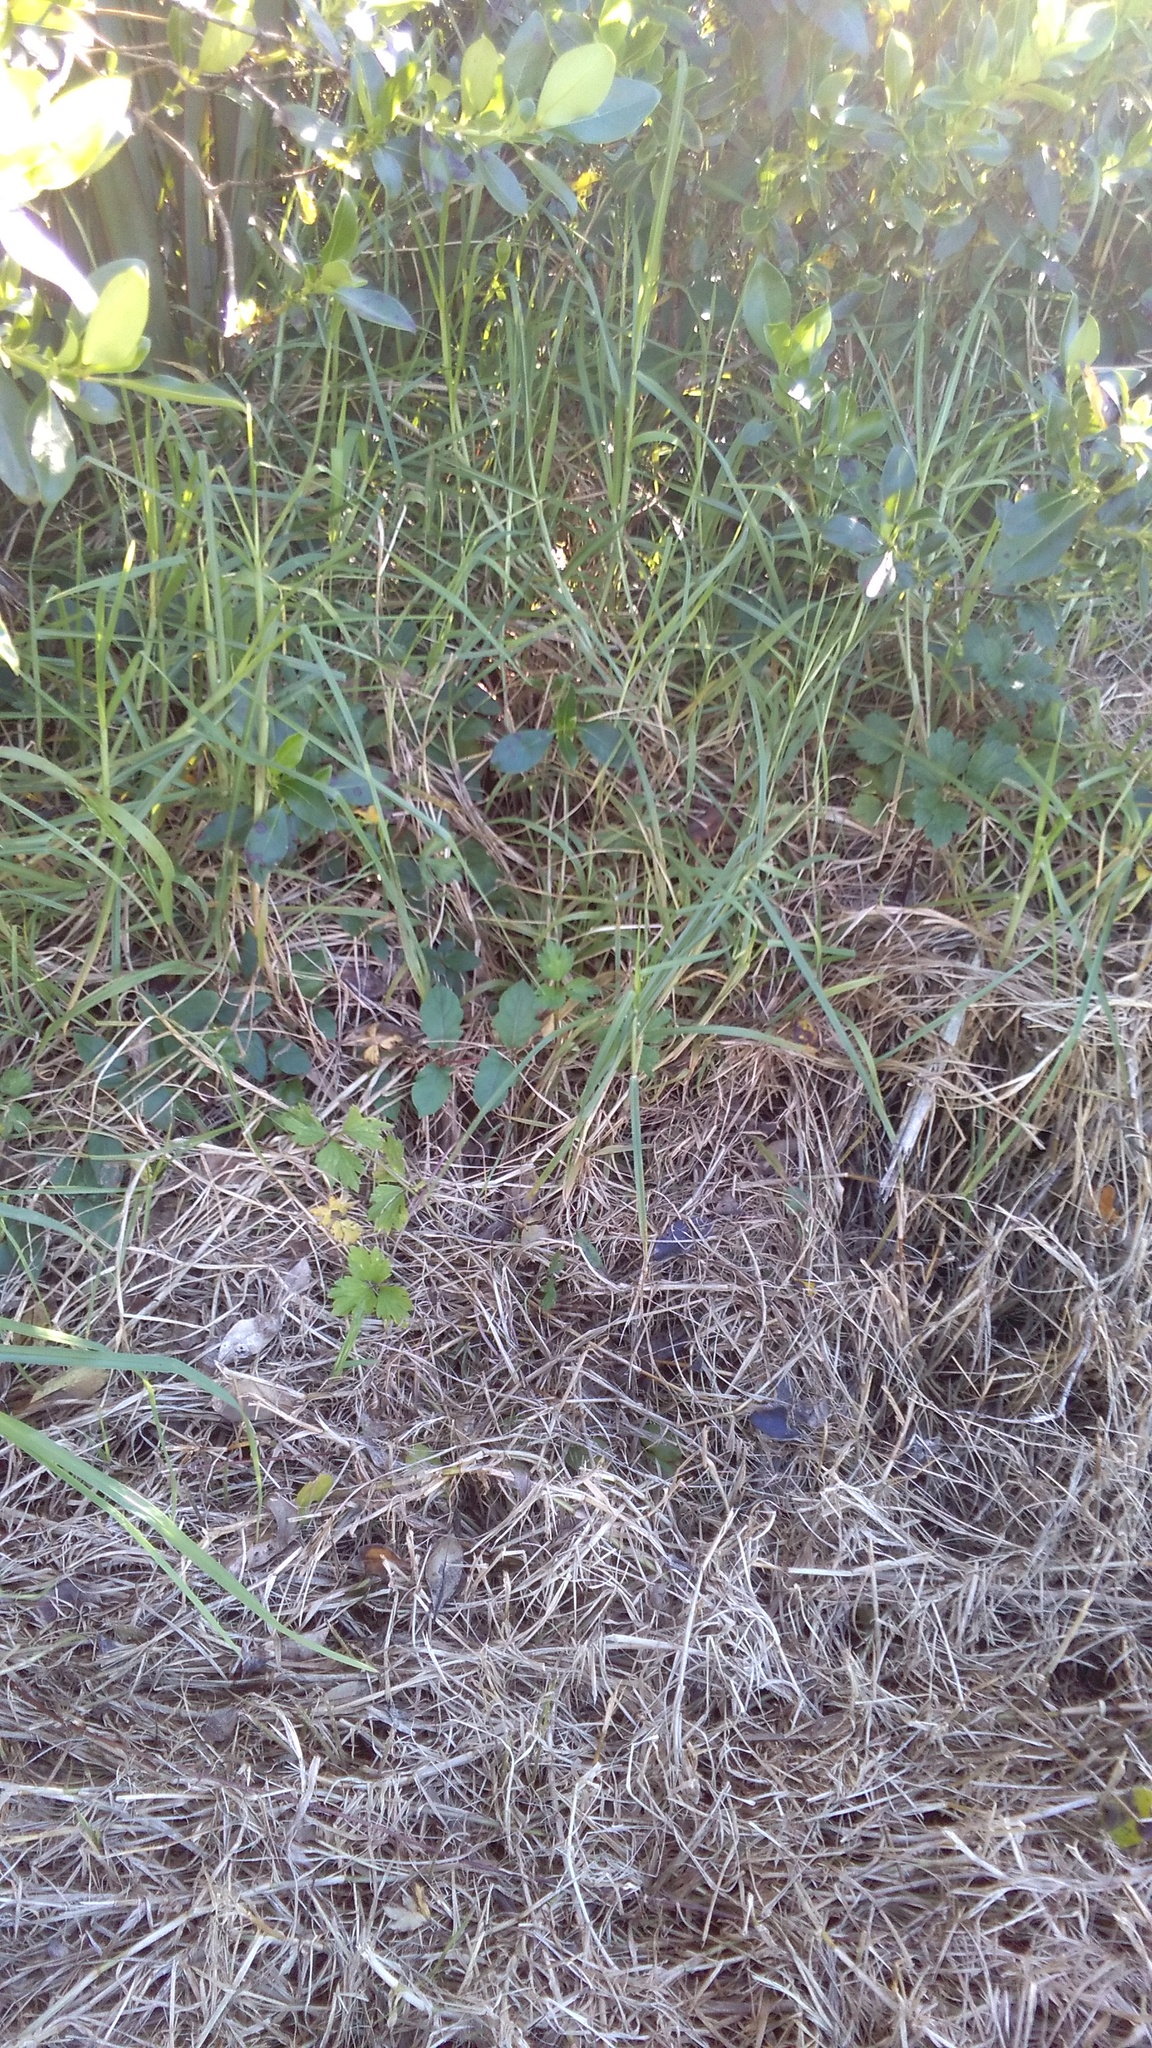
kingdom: Plantae
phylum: Tracheophyta
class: Magnoliopsida
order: Dipsacales
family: Caprifoliaceae
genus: Lonicera
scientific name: Lonicera japonica
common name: Japanese honeysuckle
